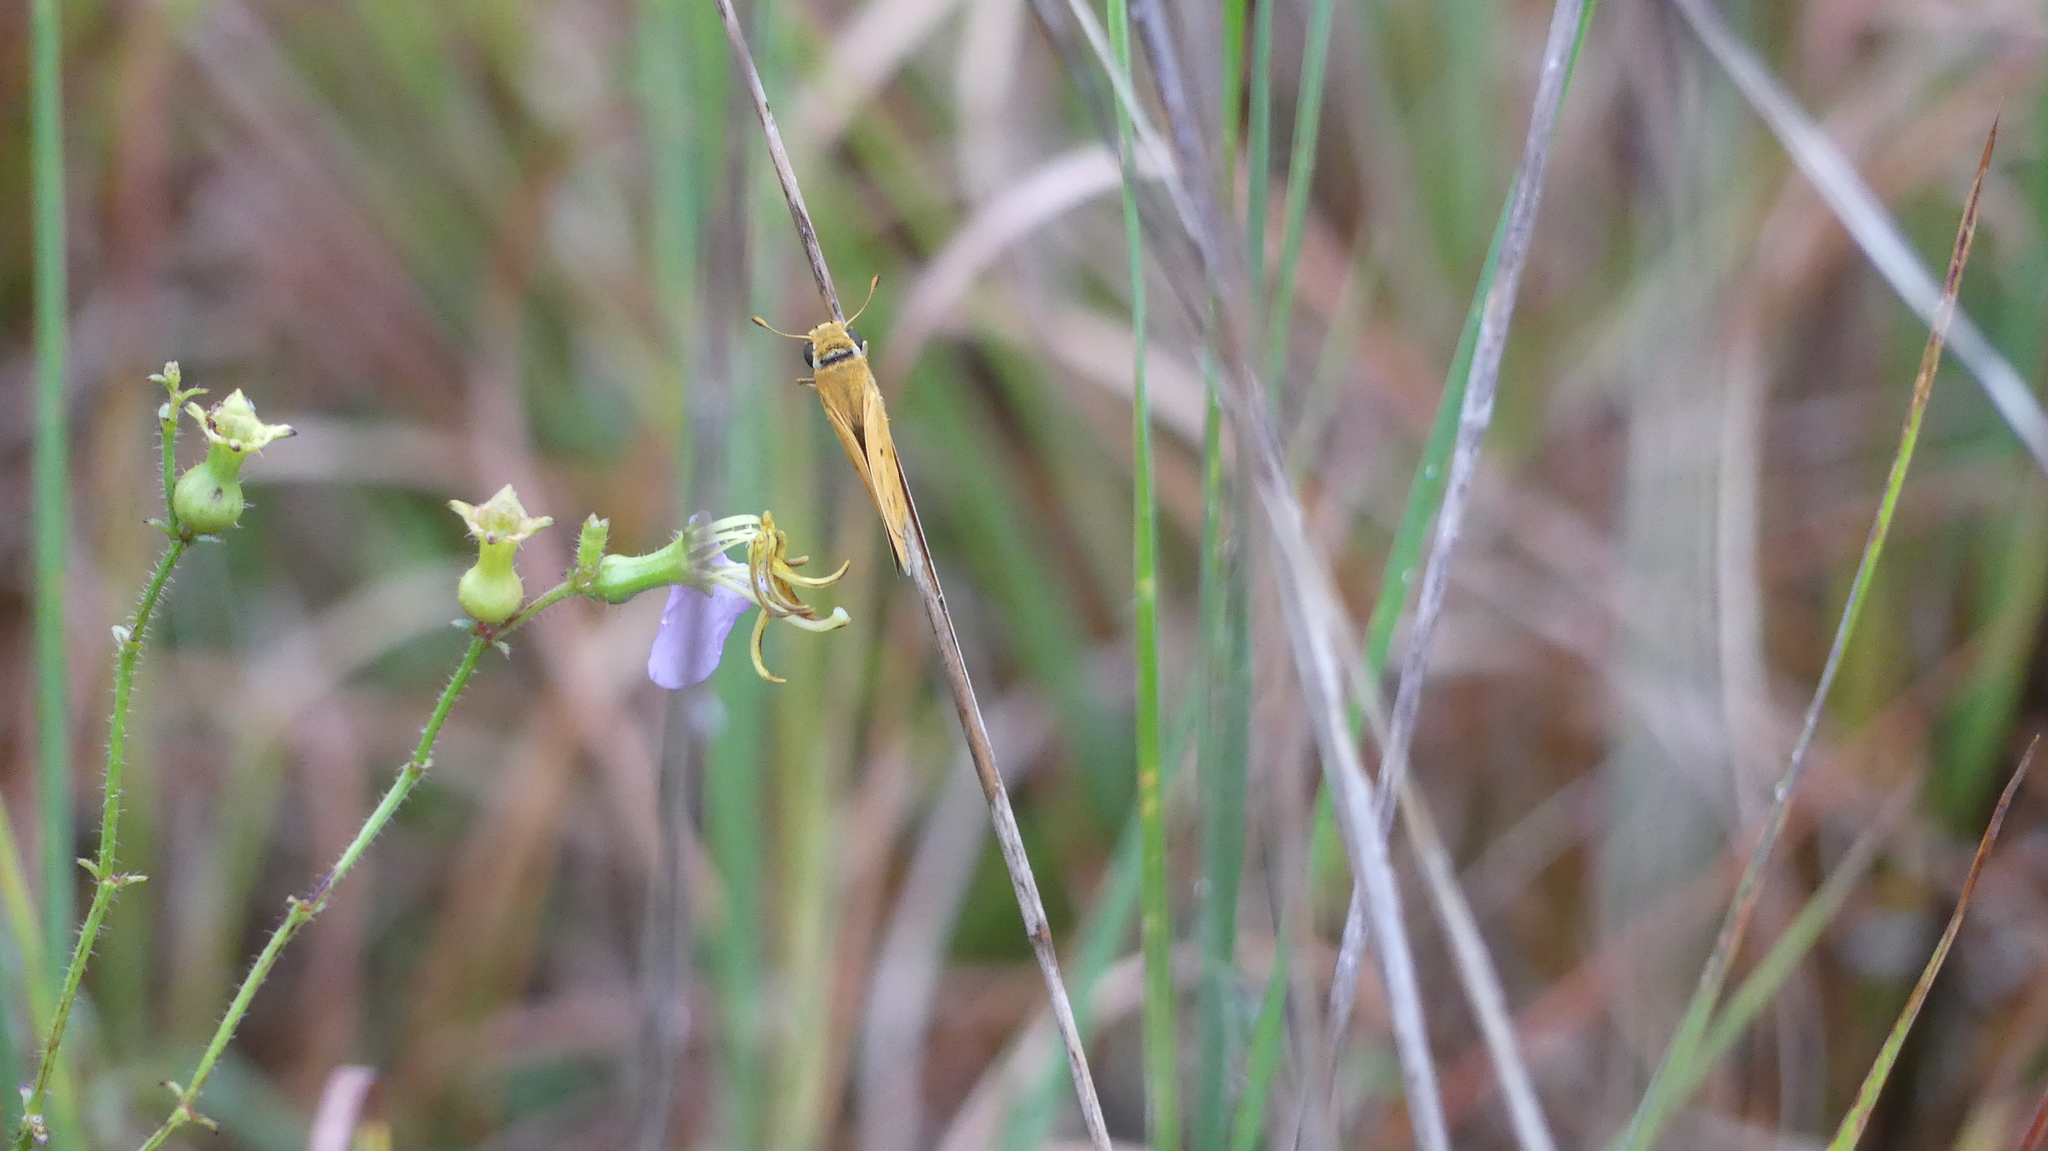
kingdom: Animalia
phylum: Arthropoda
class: Insecta
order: Lepidoptera
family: Hesperiidae
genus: Hylephila
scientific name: Hylephila phyleus
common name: Fiery skipper
